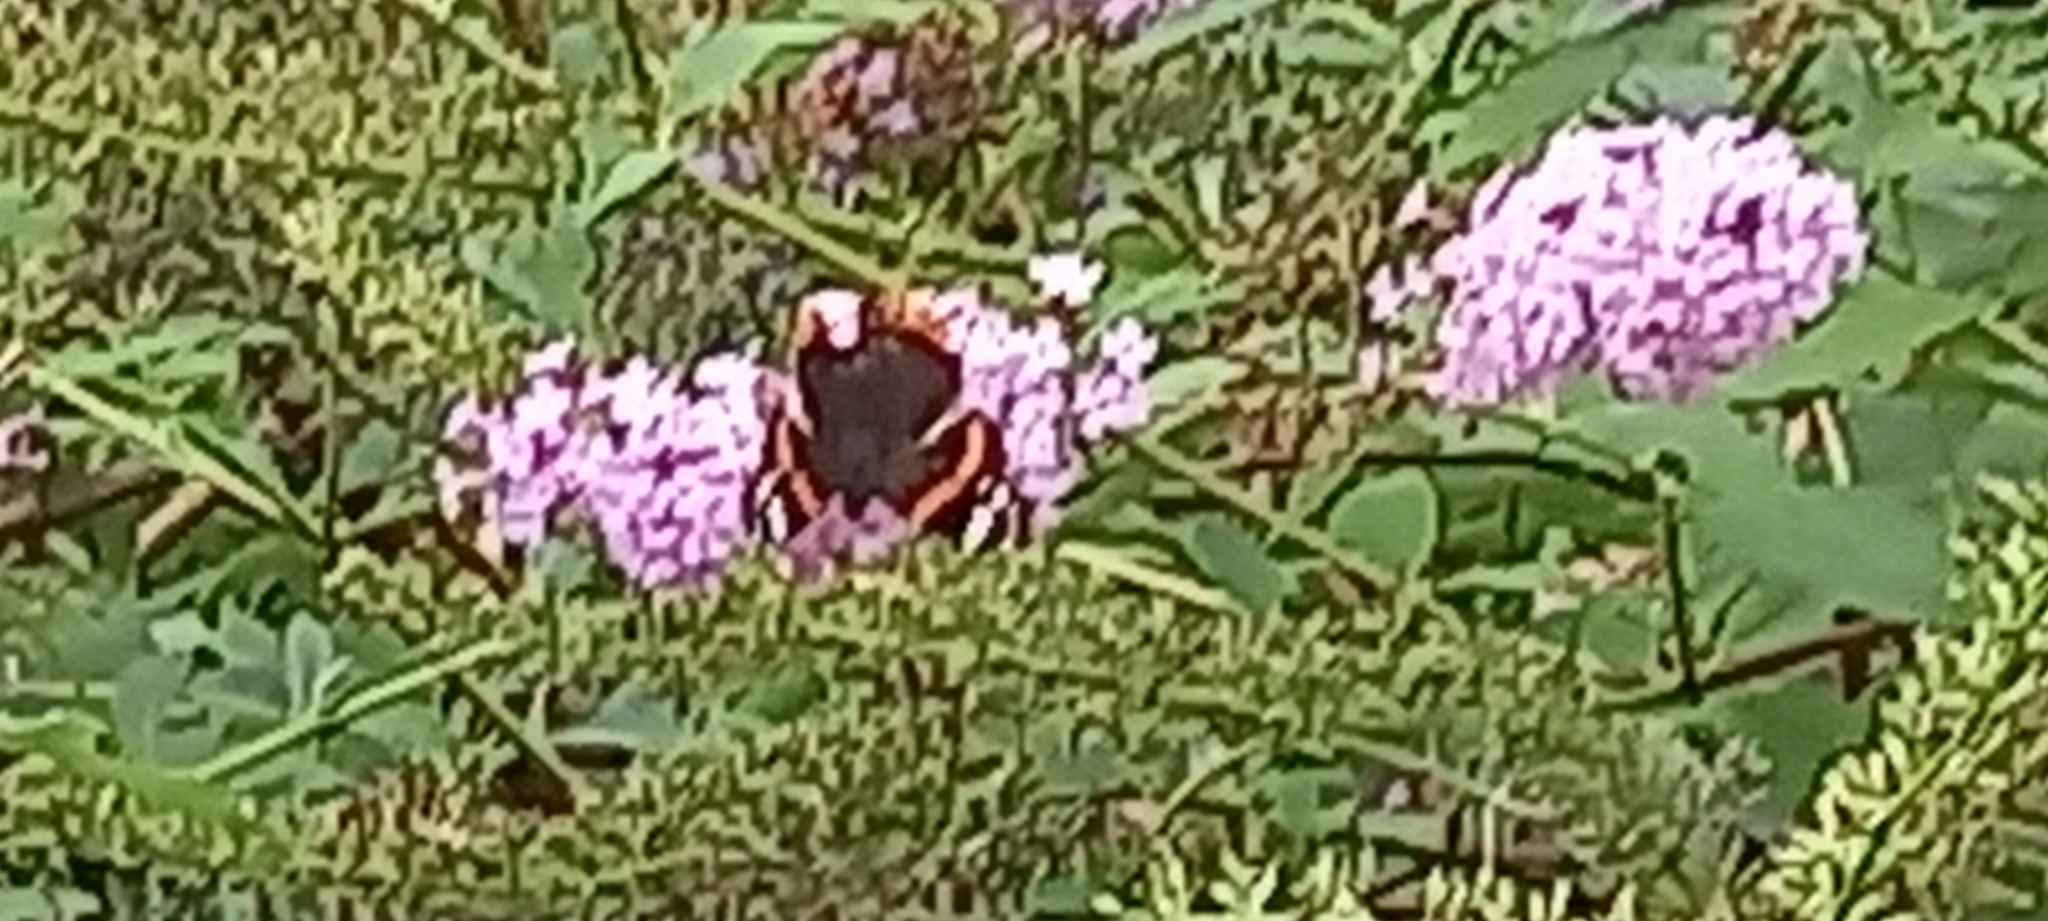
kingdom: Animalia
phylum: Arthropoda
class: Insecta
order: Lepidoptera
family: Nymphalidae
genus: Vanessa
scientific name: Vanessa atalanta
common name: Red admiral
